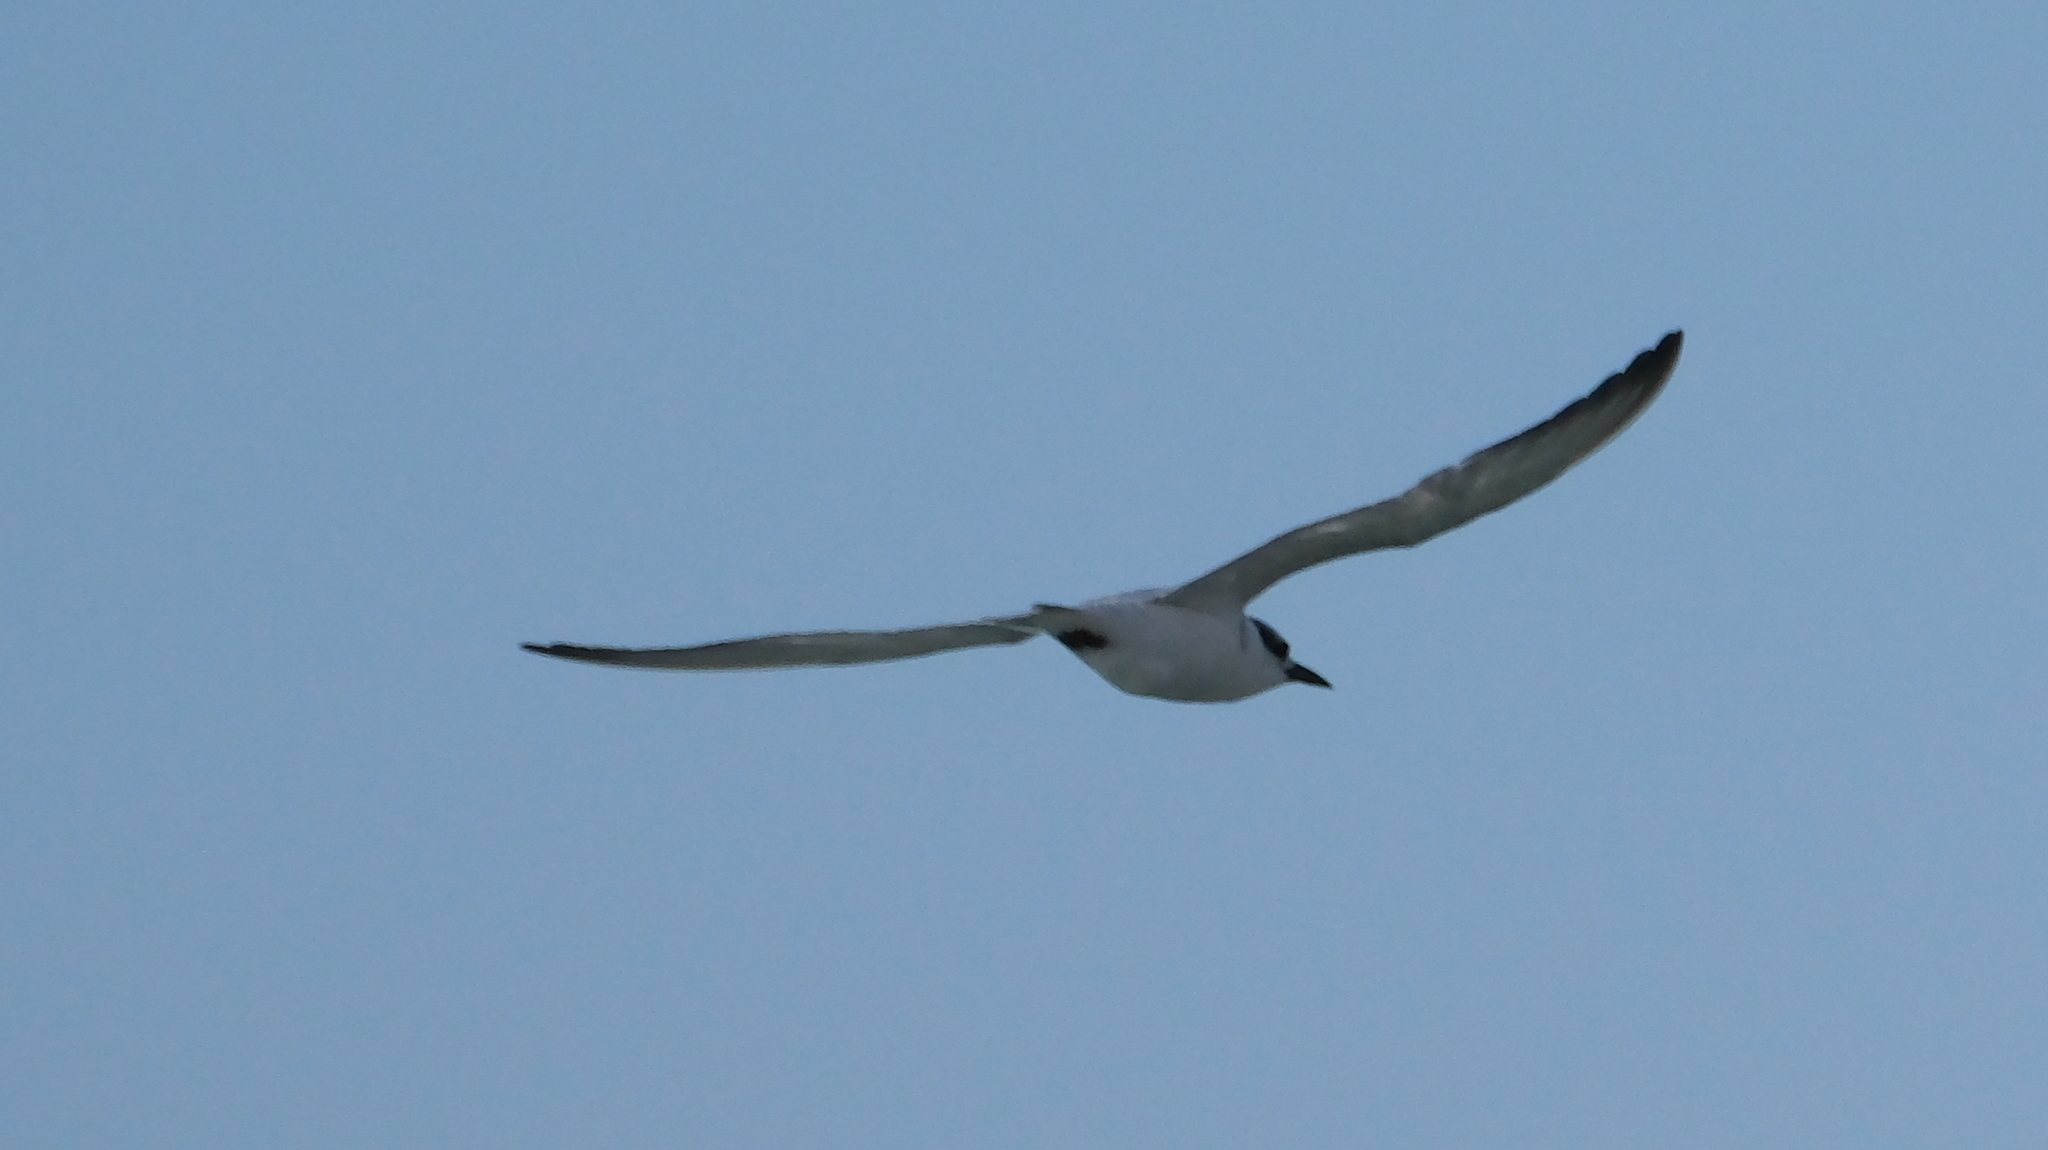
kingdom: Animalia
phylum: Chordata
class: Aves
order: Charadriiformes
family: Laridae
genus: Gelochelidon
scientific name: Gelochelidon nilotica
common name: Gull-billed tern
